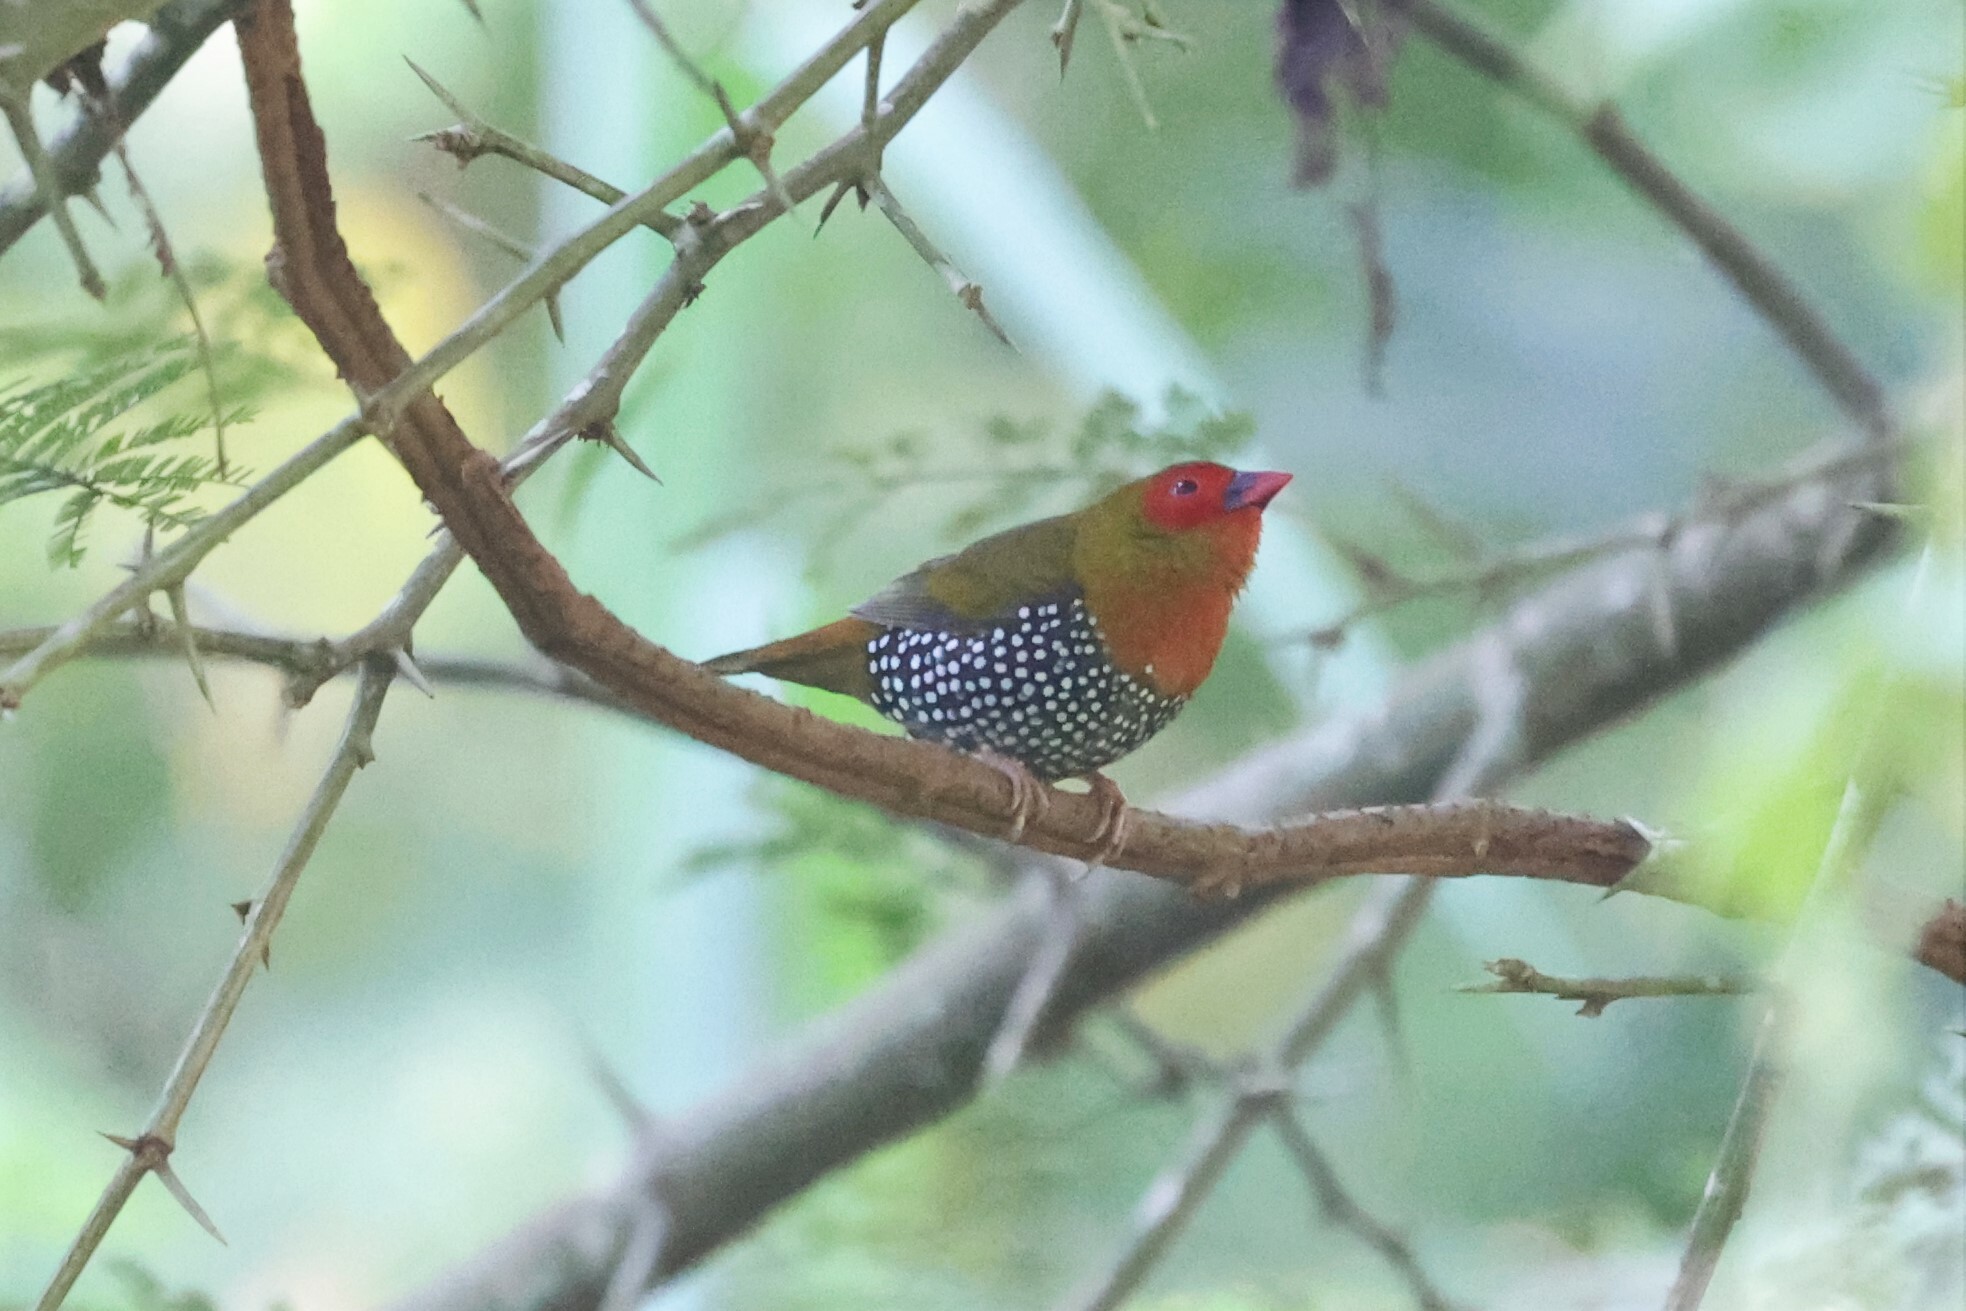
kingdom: Animalia
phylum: Chordata
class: Aves
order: Passeriformes
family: Estrildidae
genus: Mandingoa
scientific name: Mandingoa nitidula
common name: Green twinspot
